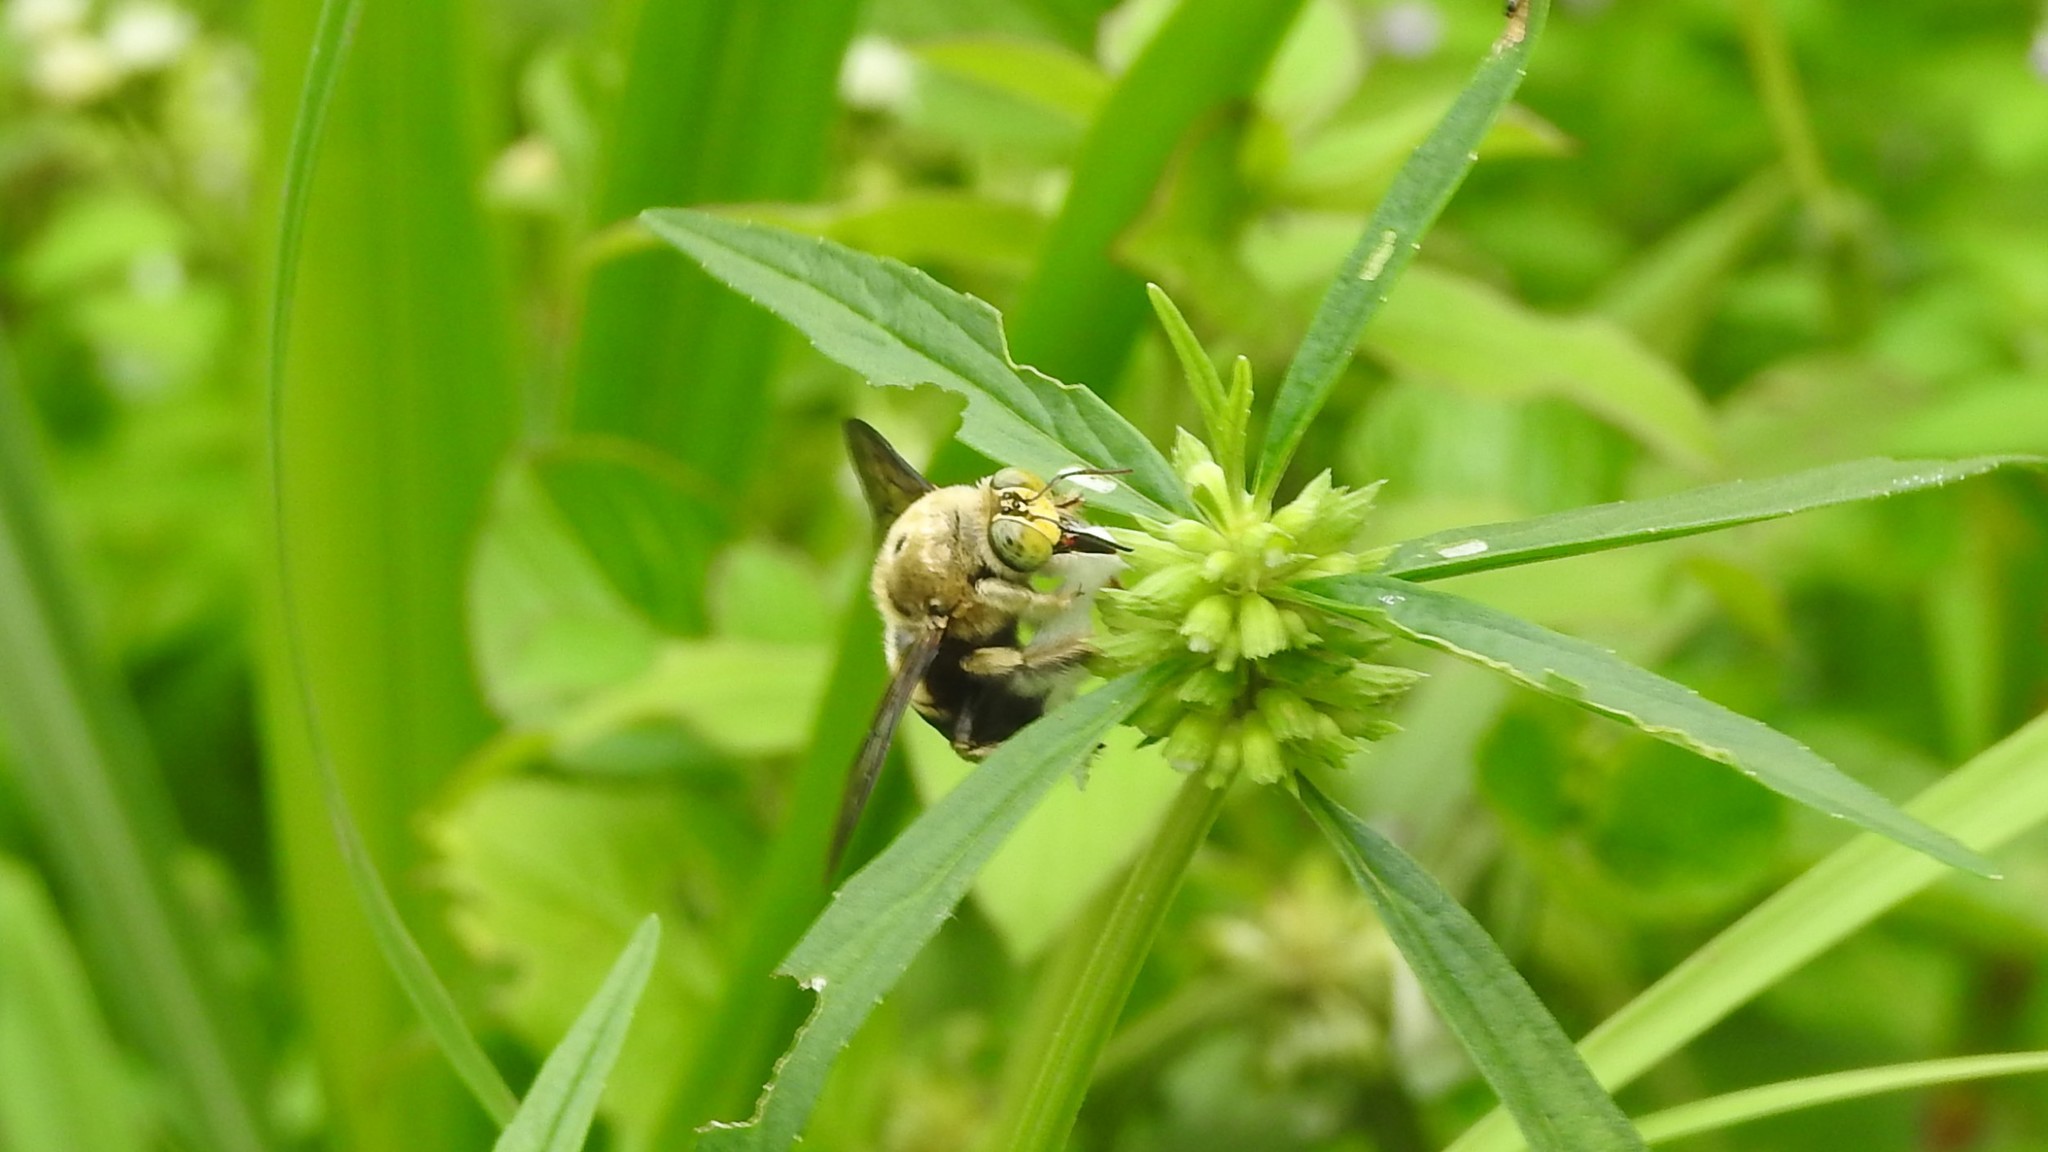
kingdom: Animalia
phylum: Arthropoda
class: Insecta
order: Hymenoptera
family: Apidae
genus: Xylocopa
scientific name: Xylocopa bhowara
